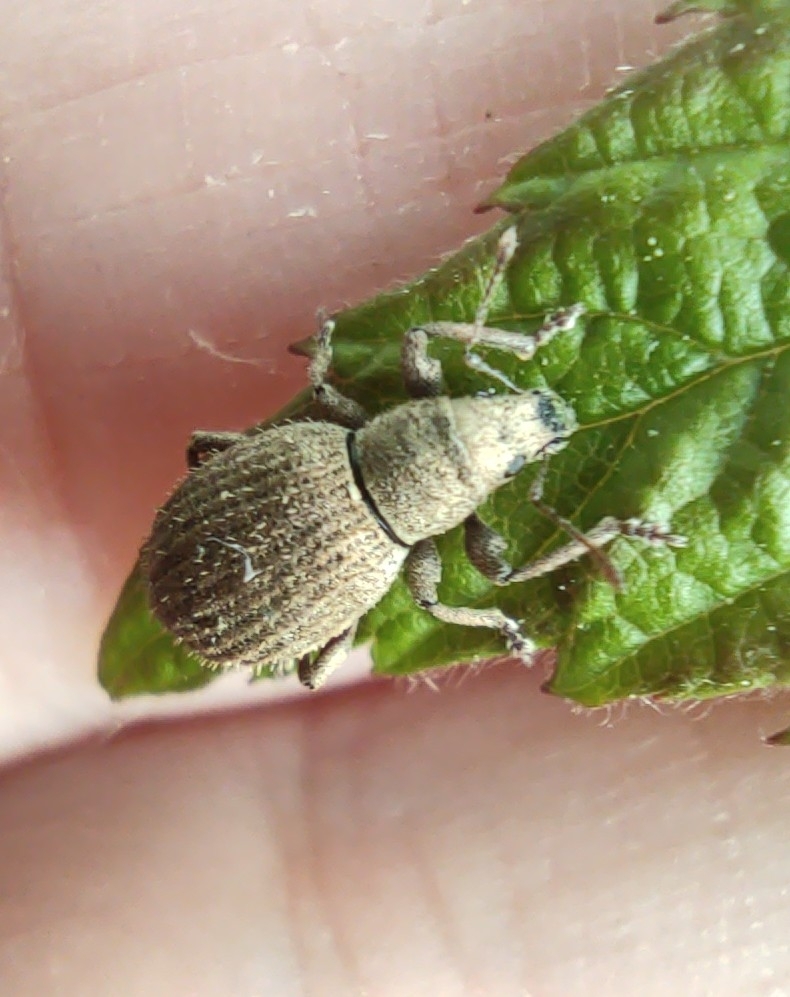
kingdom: Animalia
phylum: Arthropoda
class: Insecta
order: Coleoptera
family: Curculionidae
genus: Sciaphilus
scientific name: Sciaphilus asperatus
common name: Weevil
